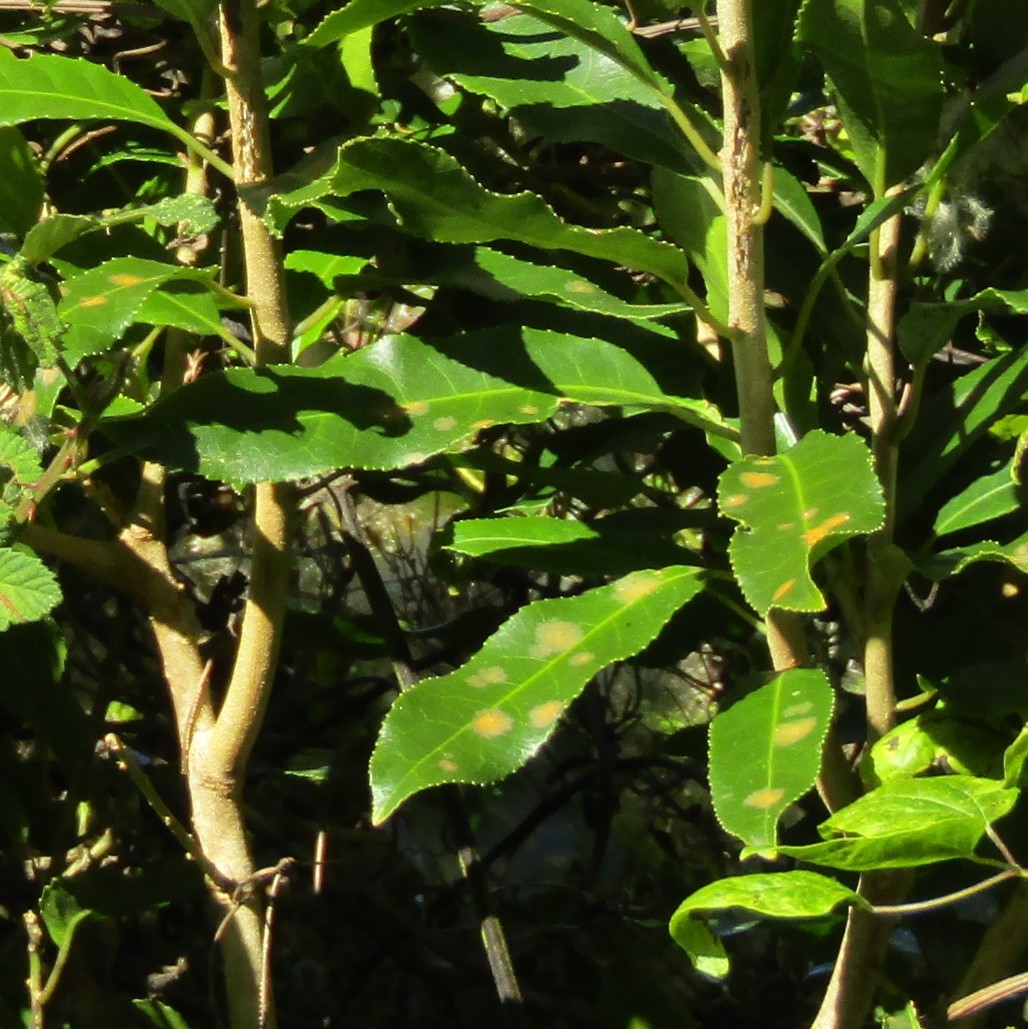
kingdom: Plantae
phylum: Chlorophyta
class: Ulvophyceae
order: Trentepohliales
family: Trentepohliaceae
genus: Cephaleuros
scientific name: Cephaleuros
